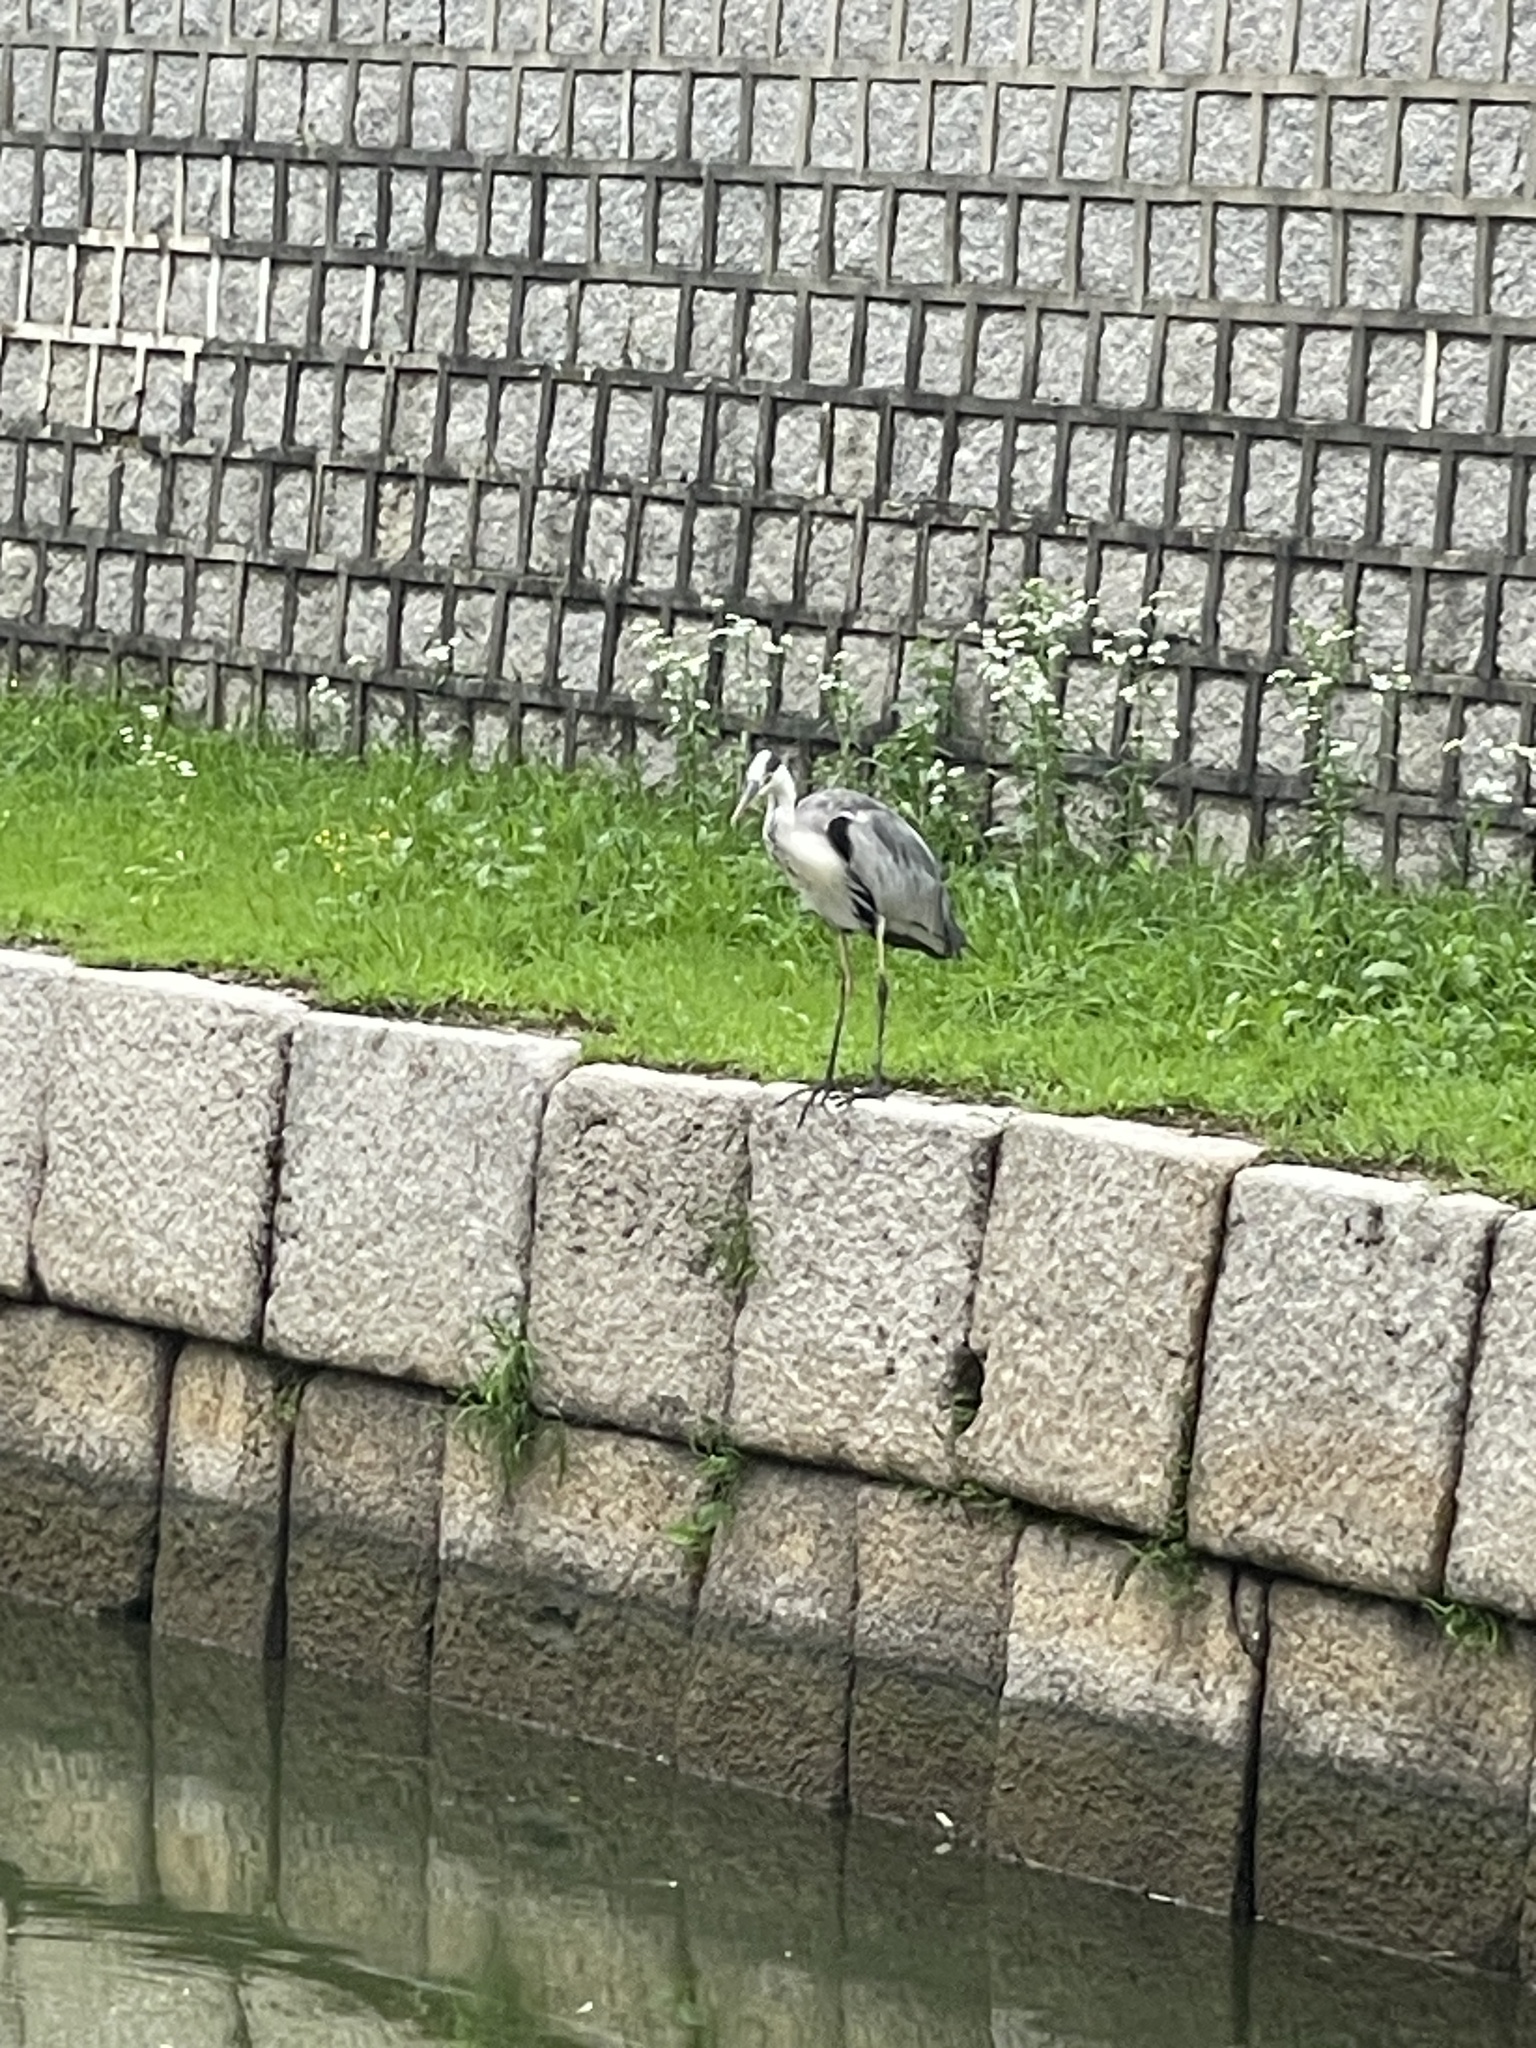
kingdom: Animalia
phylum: Chordata
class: Aves
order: Pelecaniformes
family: Ardeidae
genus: Ardea
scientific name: Ardea cinerea
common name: Grey heron
